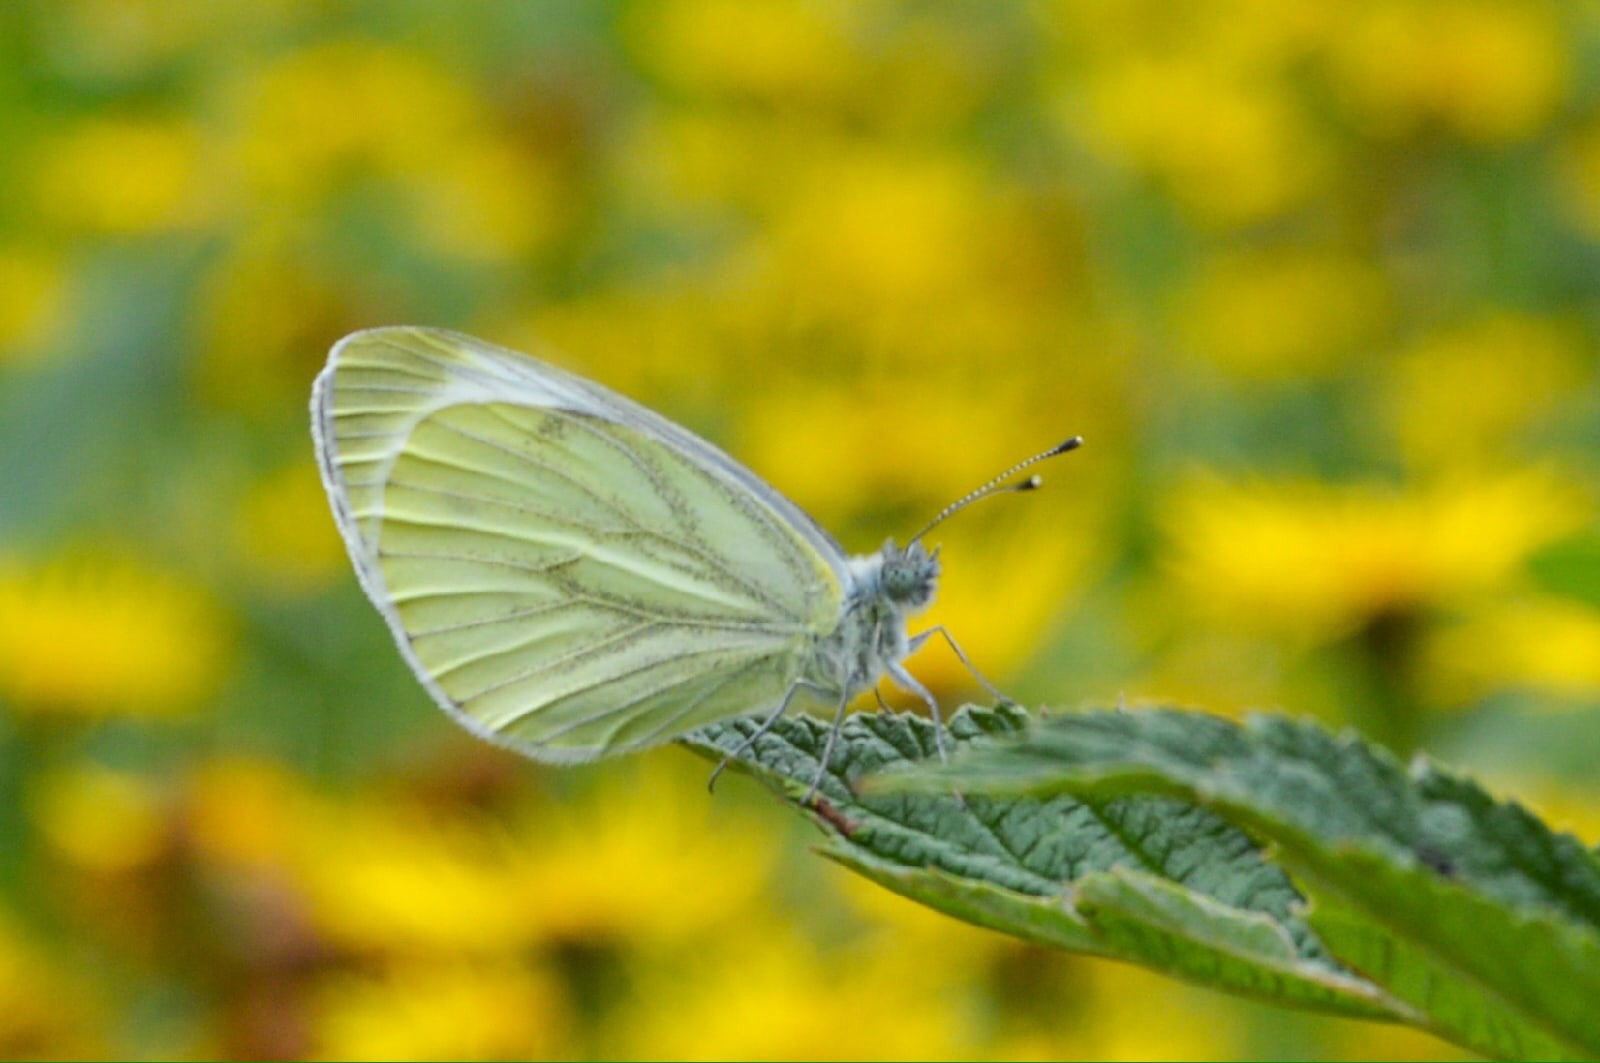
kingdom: Animalia
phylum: Arthropoda
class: Insecta
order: Lepidoptera
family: Pieridae
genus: Pieris
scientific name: Pieris napi
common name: Green-veined white
